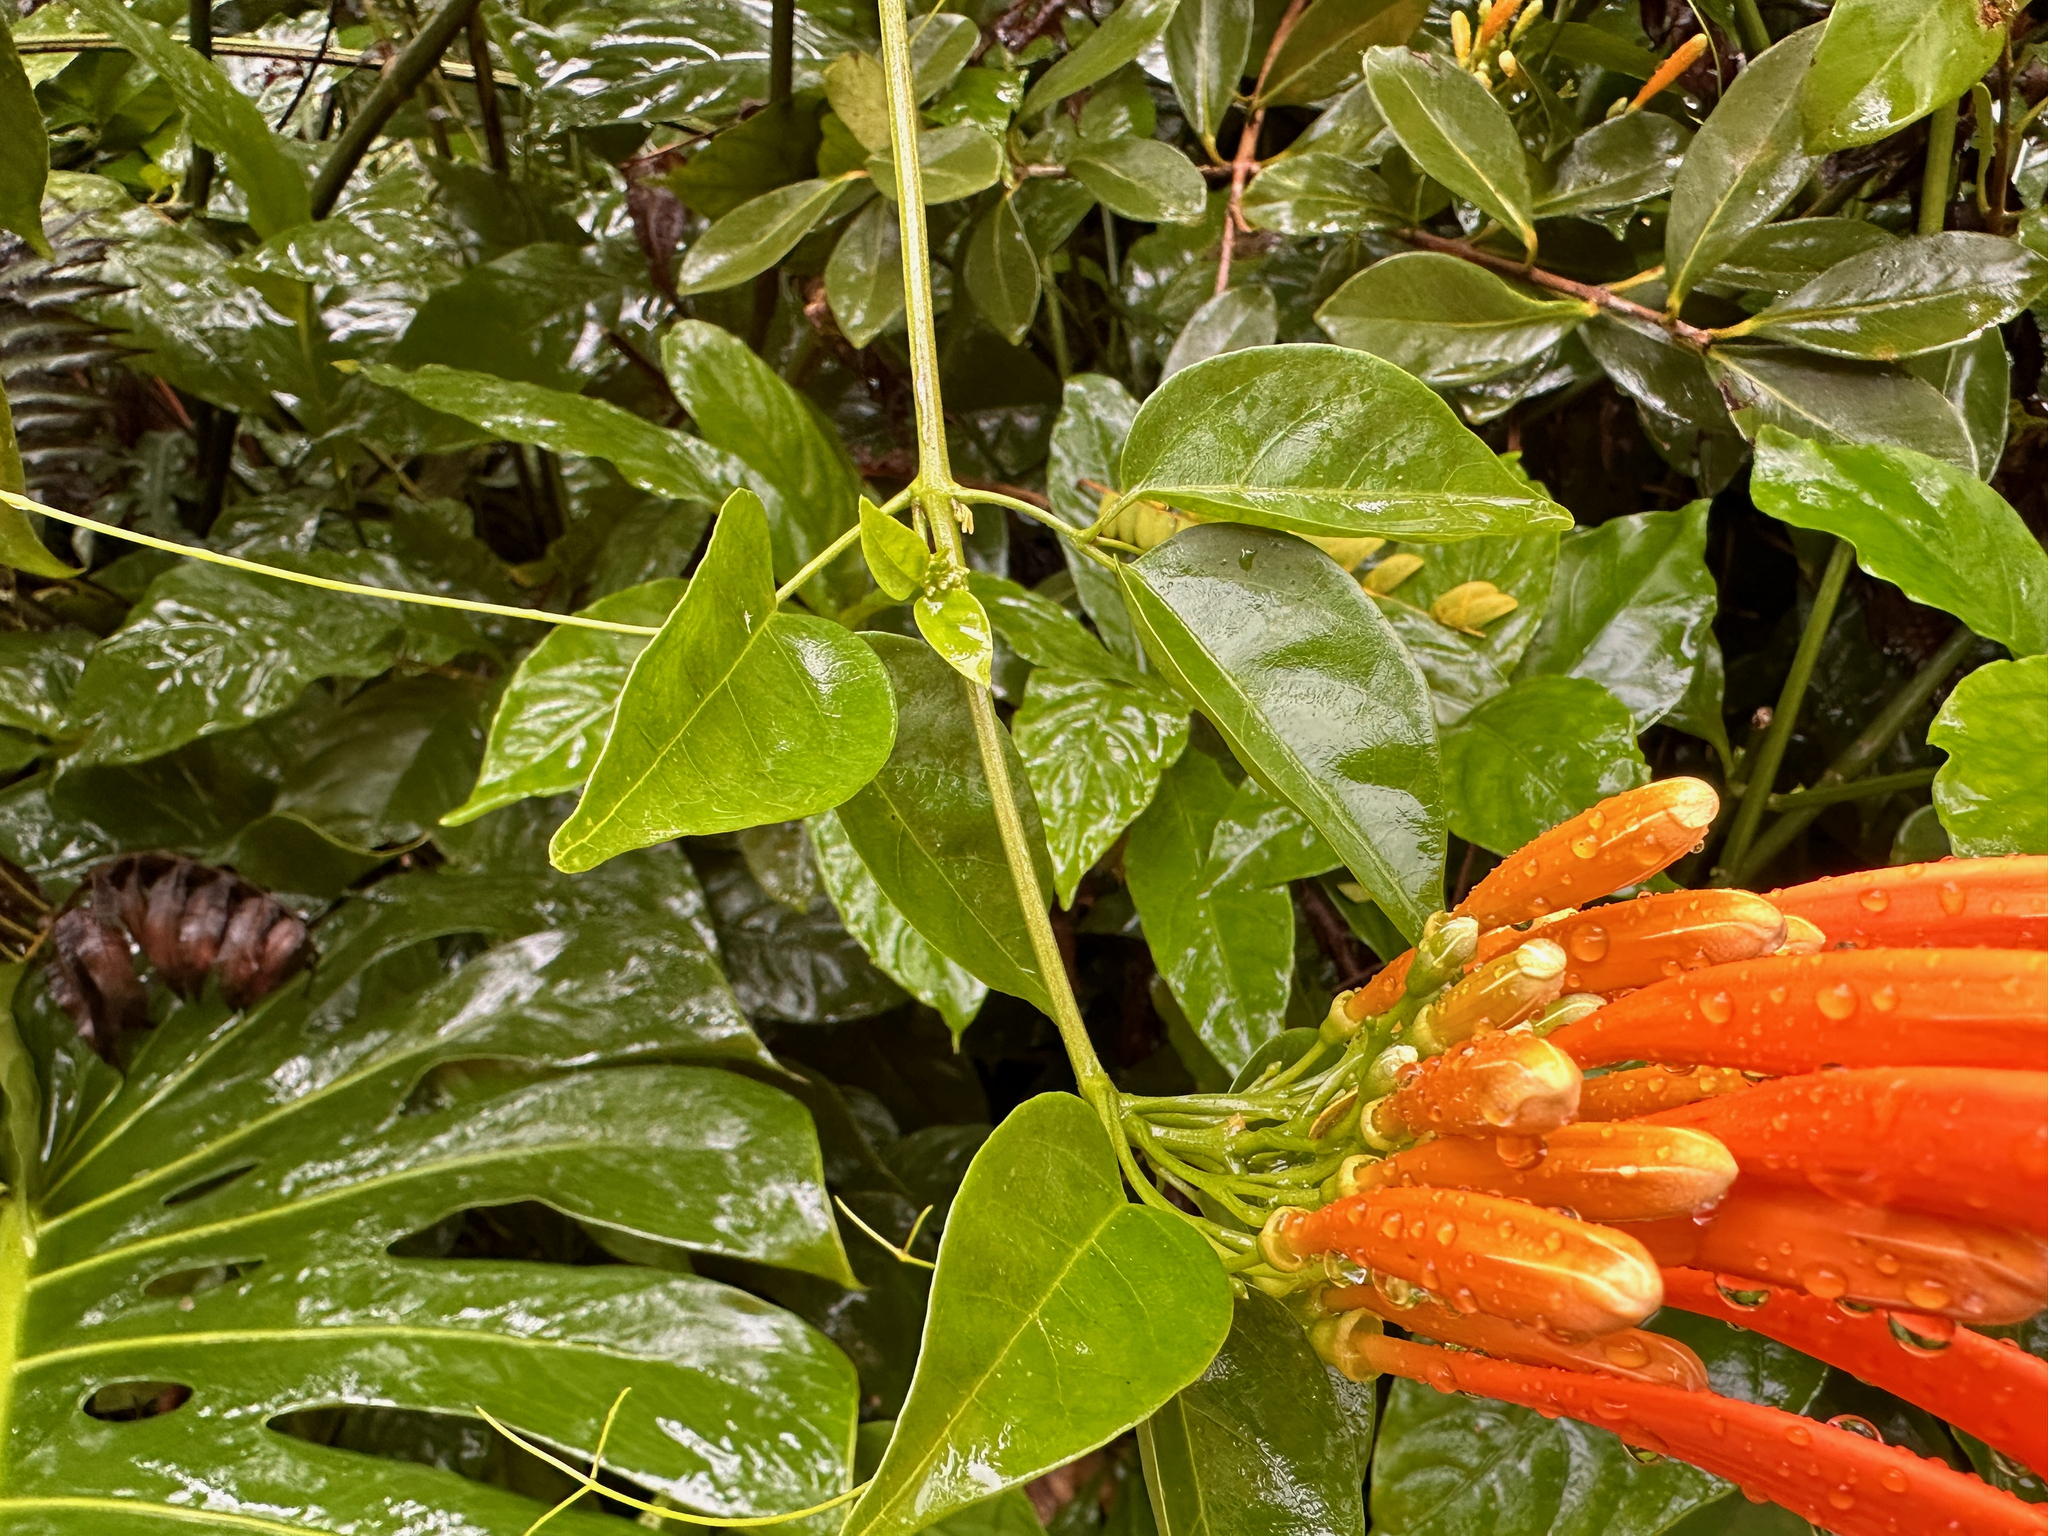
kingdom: Plantae
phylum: Tracheophyta
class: Magnoliopsida
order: Lamiales
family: Bignoniaceae
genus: Pyrostegia
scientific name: Pyrostegia venusta
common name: Flamevine
